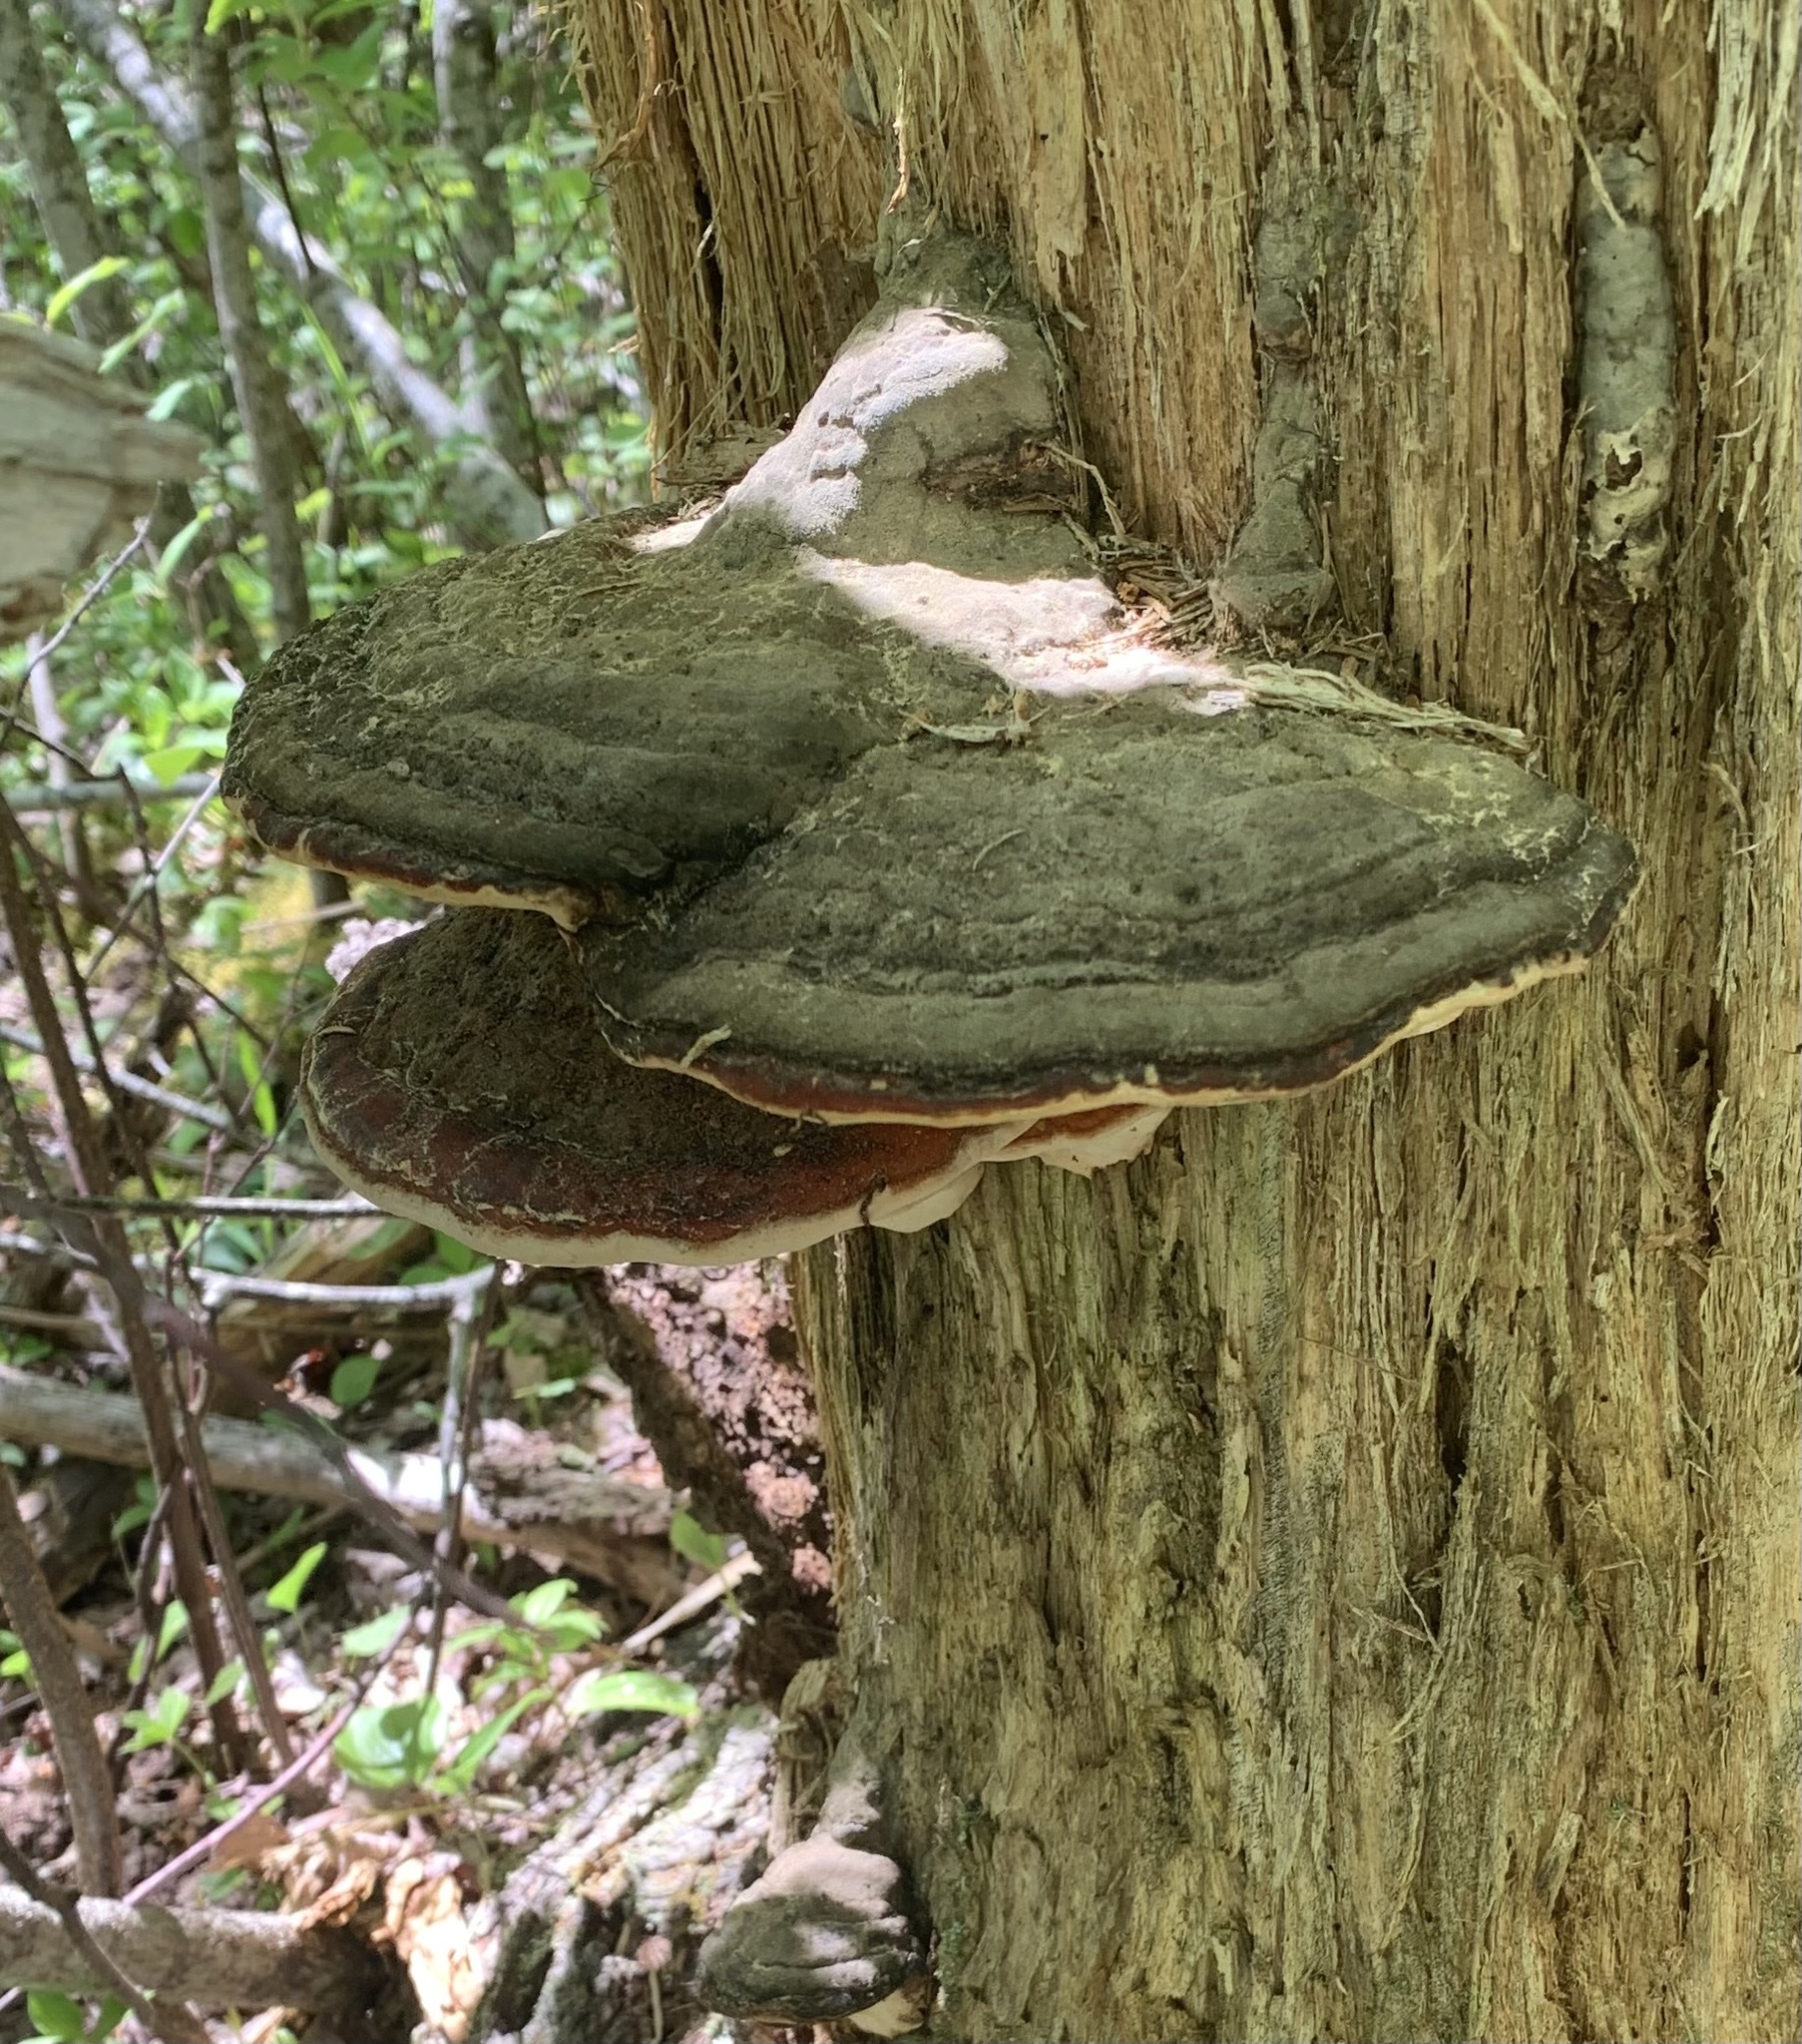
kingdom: Fungi
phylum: Basidiomycota
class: Agaricomycetes
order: Polyporales
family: Fomitopsidaceae
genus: Fomitopsis
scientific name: Fomitopsis mounceae
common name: Northern red belt
